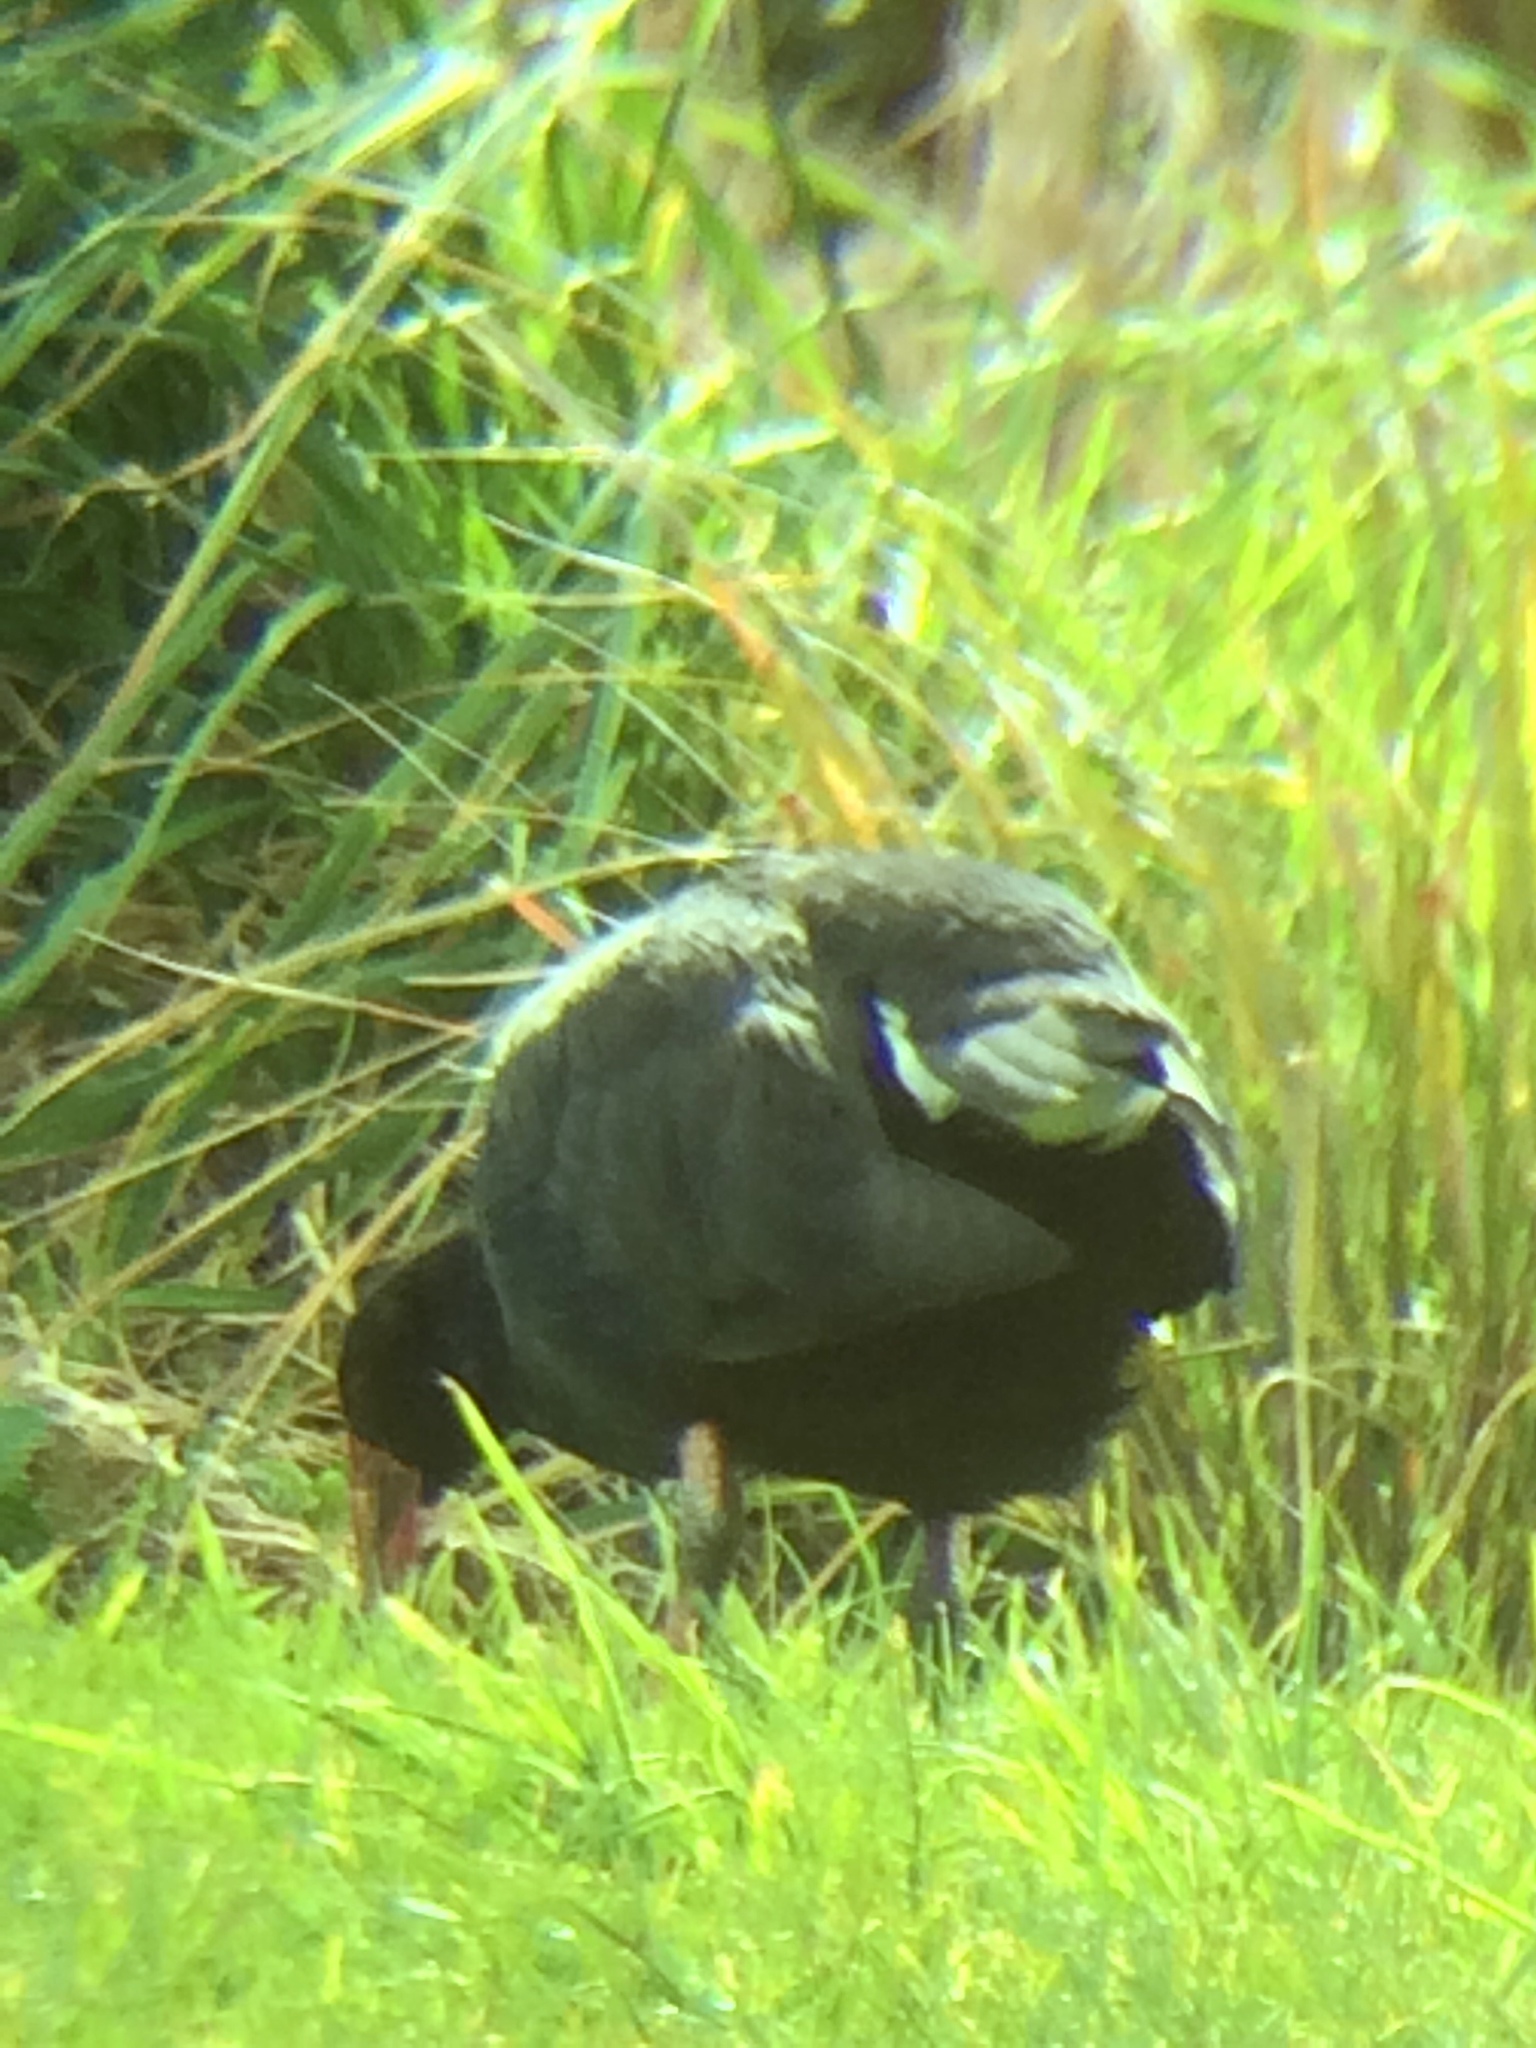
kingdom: Animalia
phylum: Chordata
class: Aves
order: Gruiformes
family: Rallidae
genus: Porphyrio
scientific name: Porphyrio melanotus
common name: Australasian swamphen
